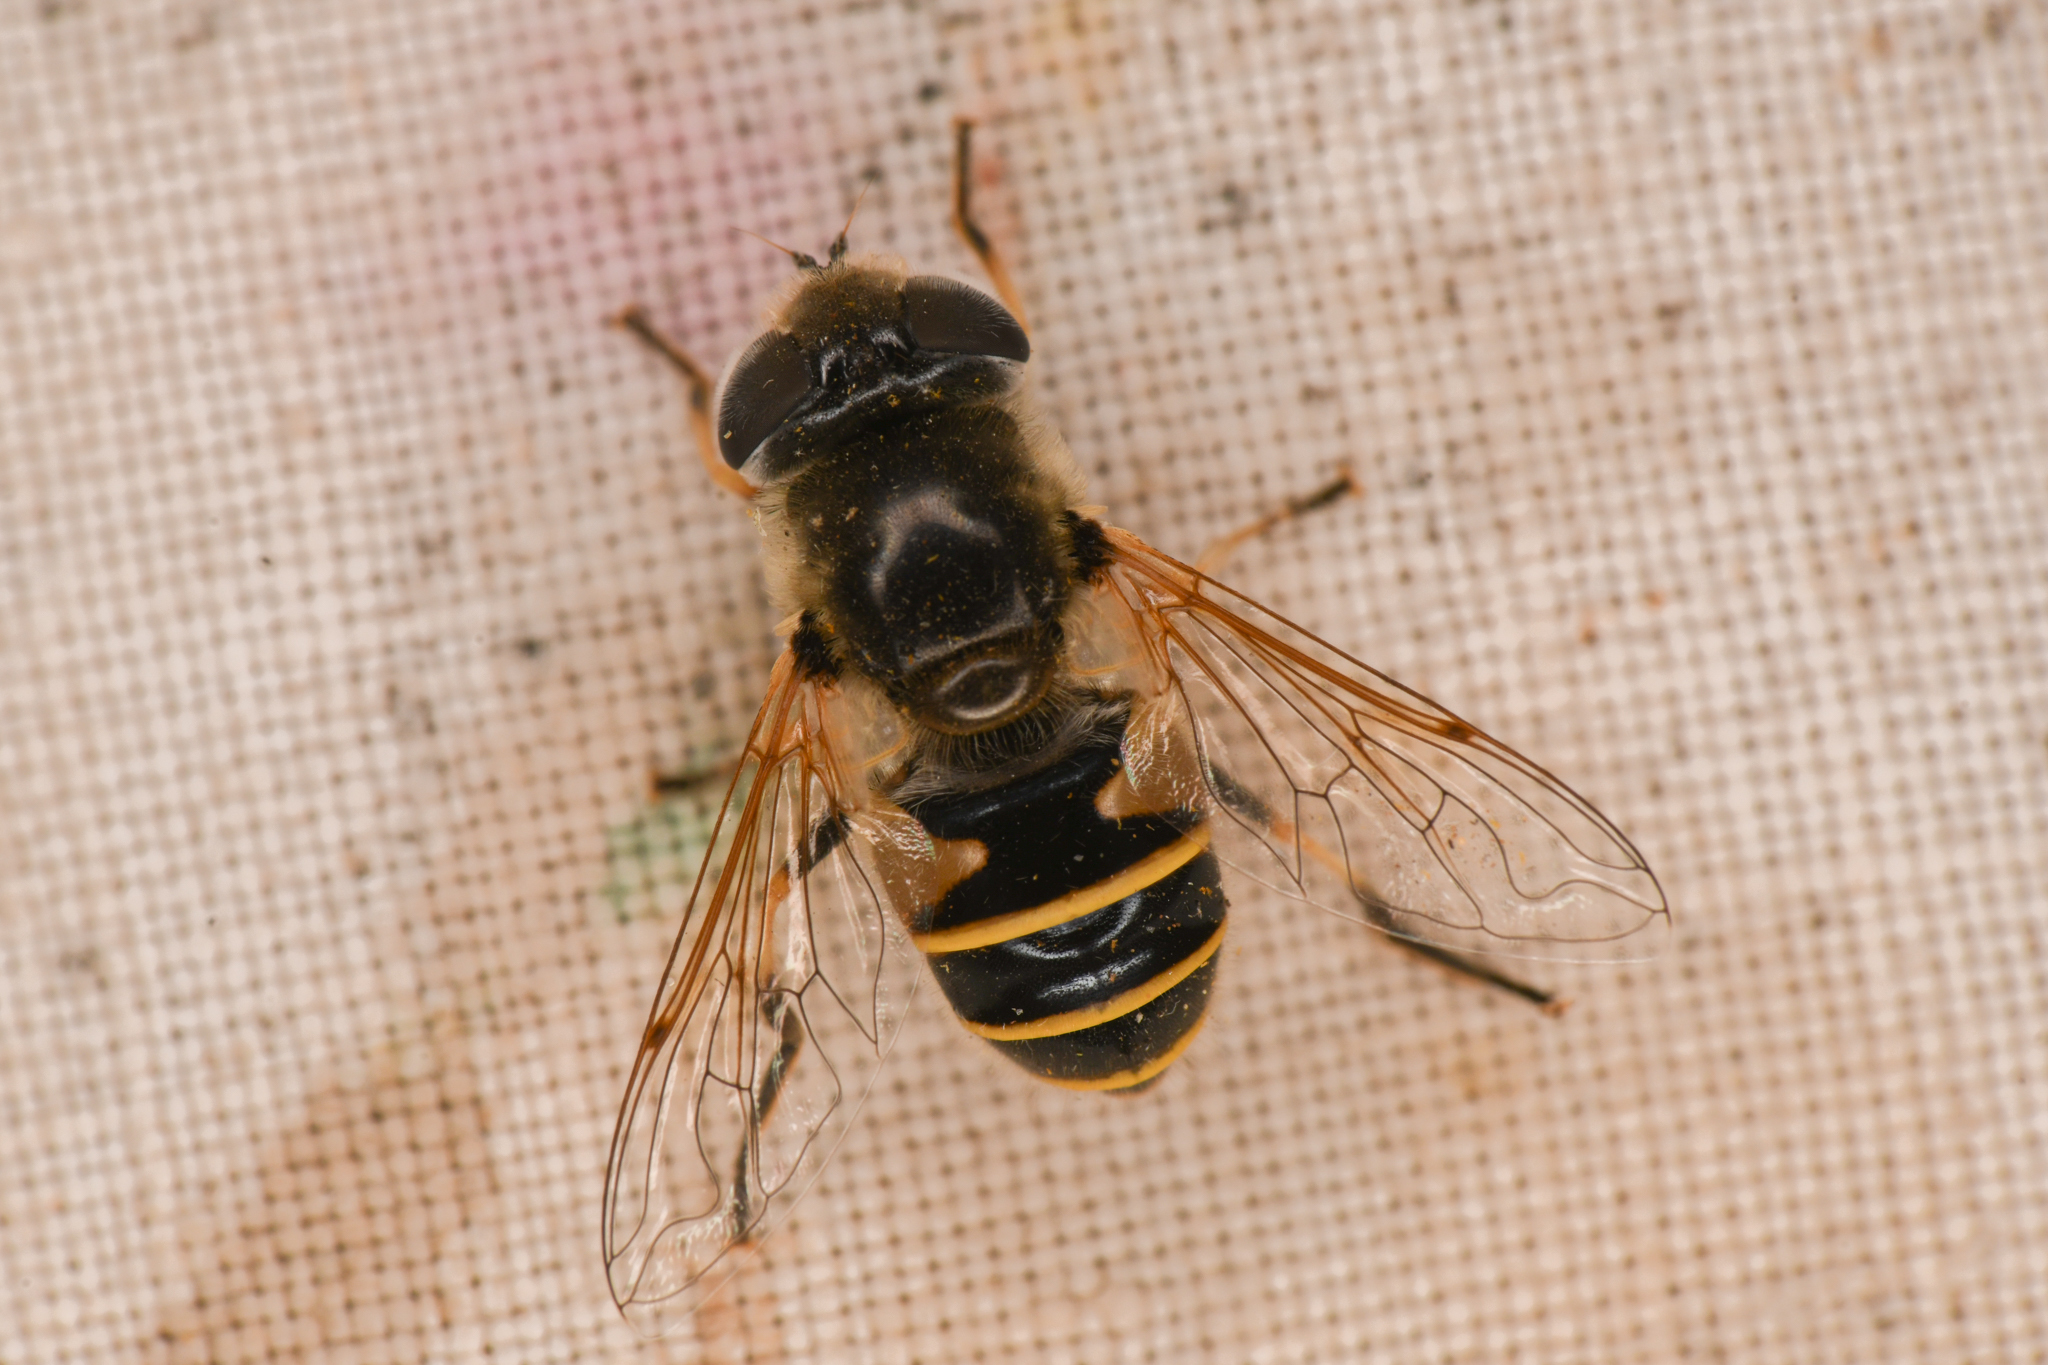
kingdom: Animalia
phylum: Arthropoda
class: Insecta
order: Diptera
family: Syrphidae
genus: Eristalis
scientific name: Eristalis hirta
